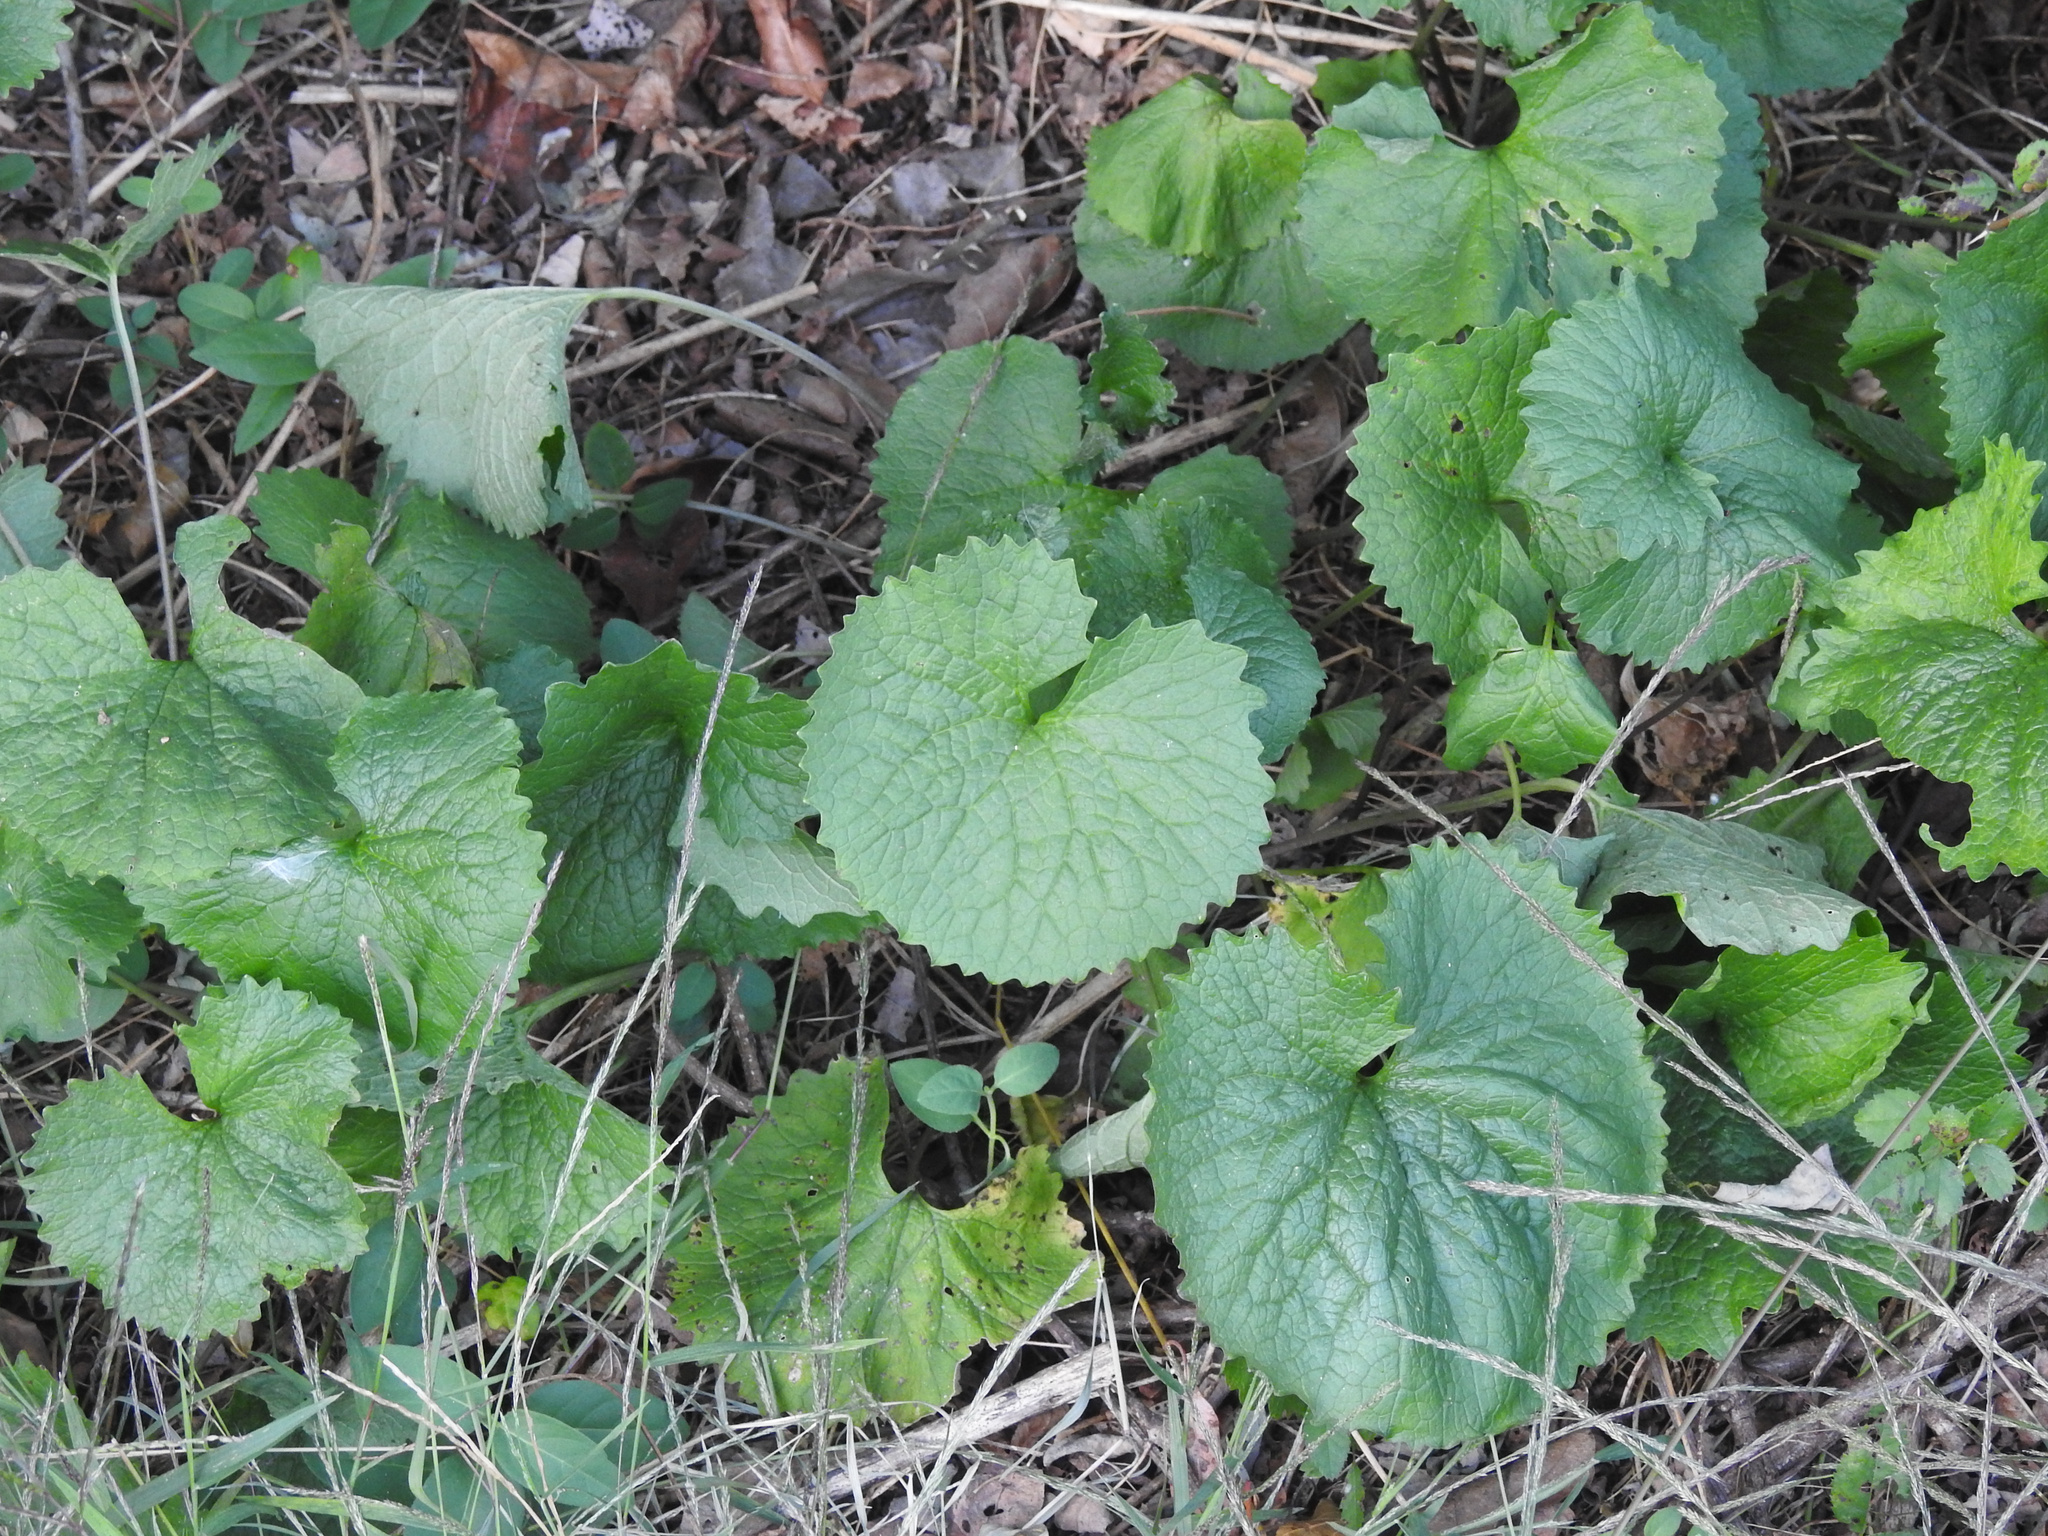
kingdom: Plantae
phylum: Tracheophyta
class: Magnoliopsida
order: Brassicales
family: Brassicaceae
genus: Alliaria
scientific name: Alliaria petiolata
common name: Garlic mustard
